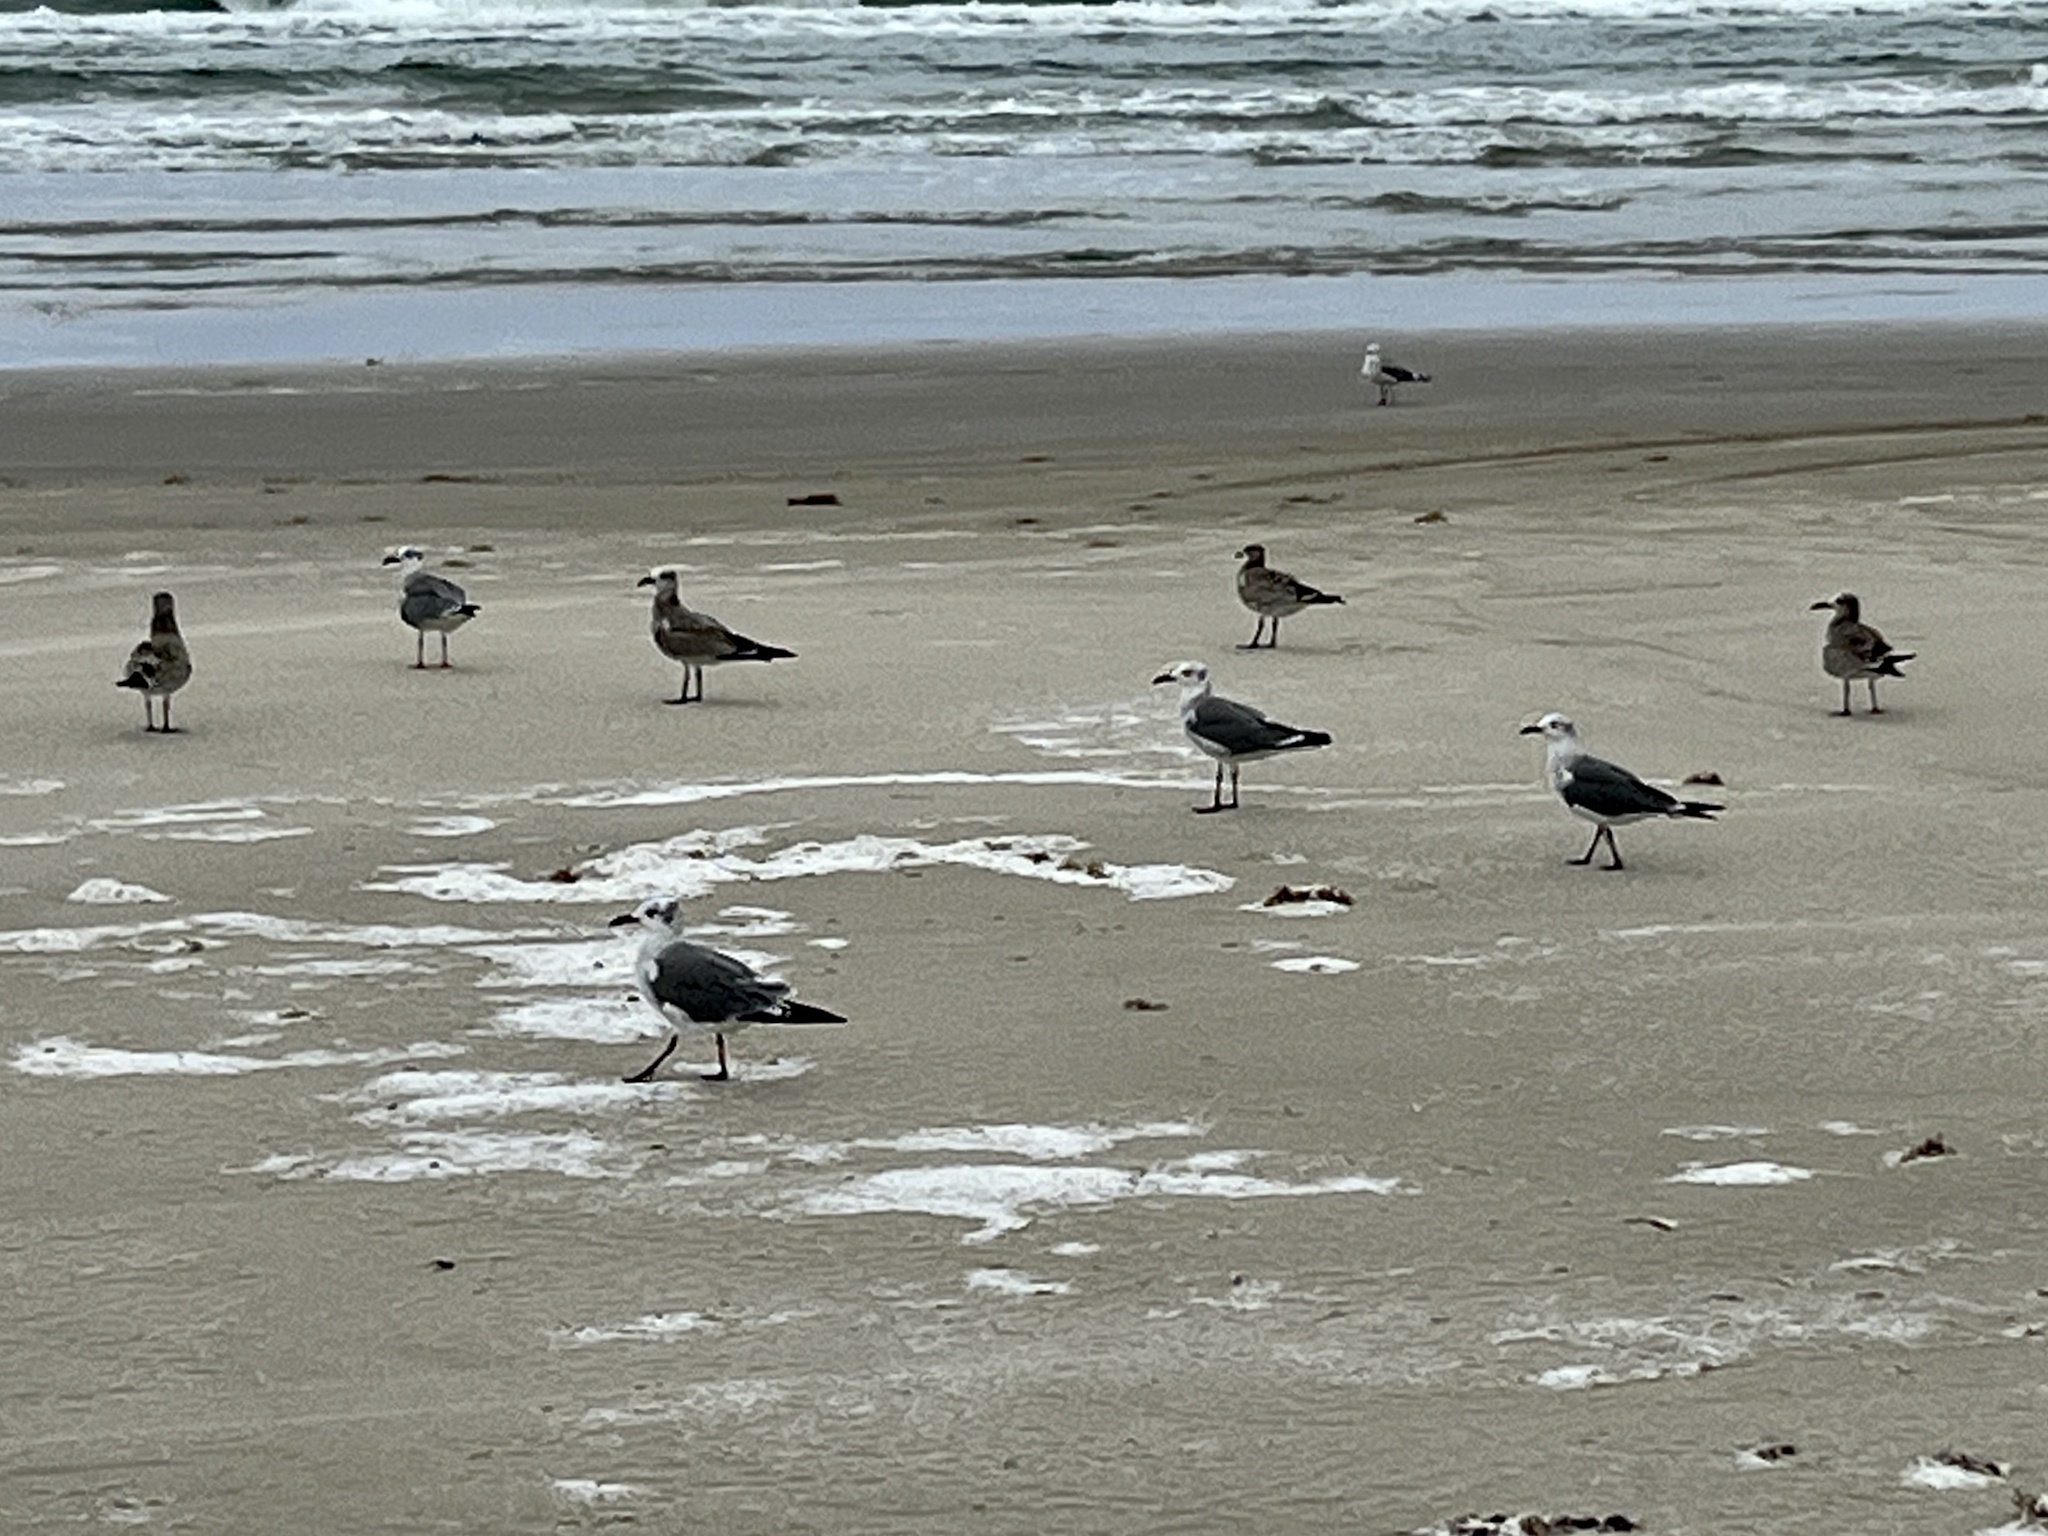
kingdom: Animalia
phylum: Chordata
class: Aves
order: Charadriiformes
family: Laridae
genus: Leucophaeus
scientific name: Leucophaeus atricilla
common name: Laughing gull
